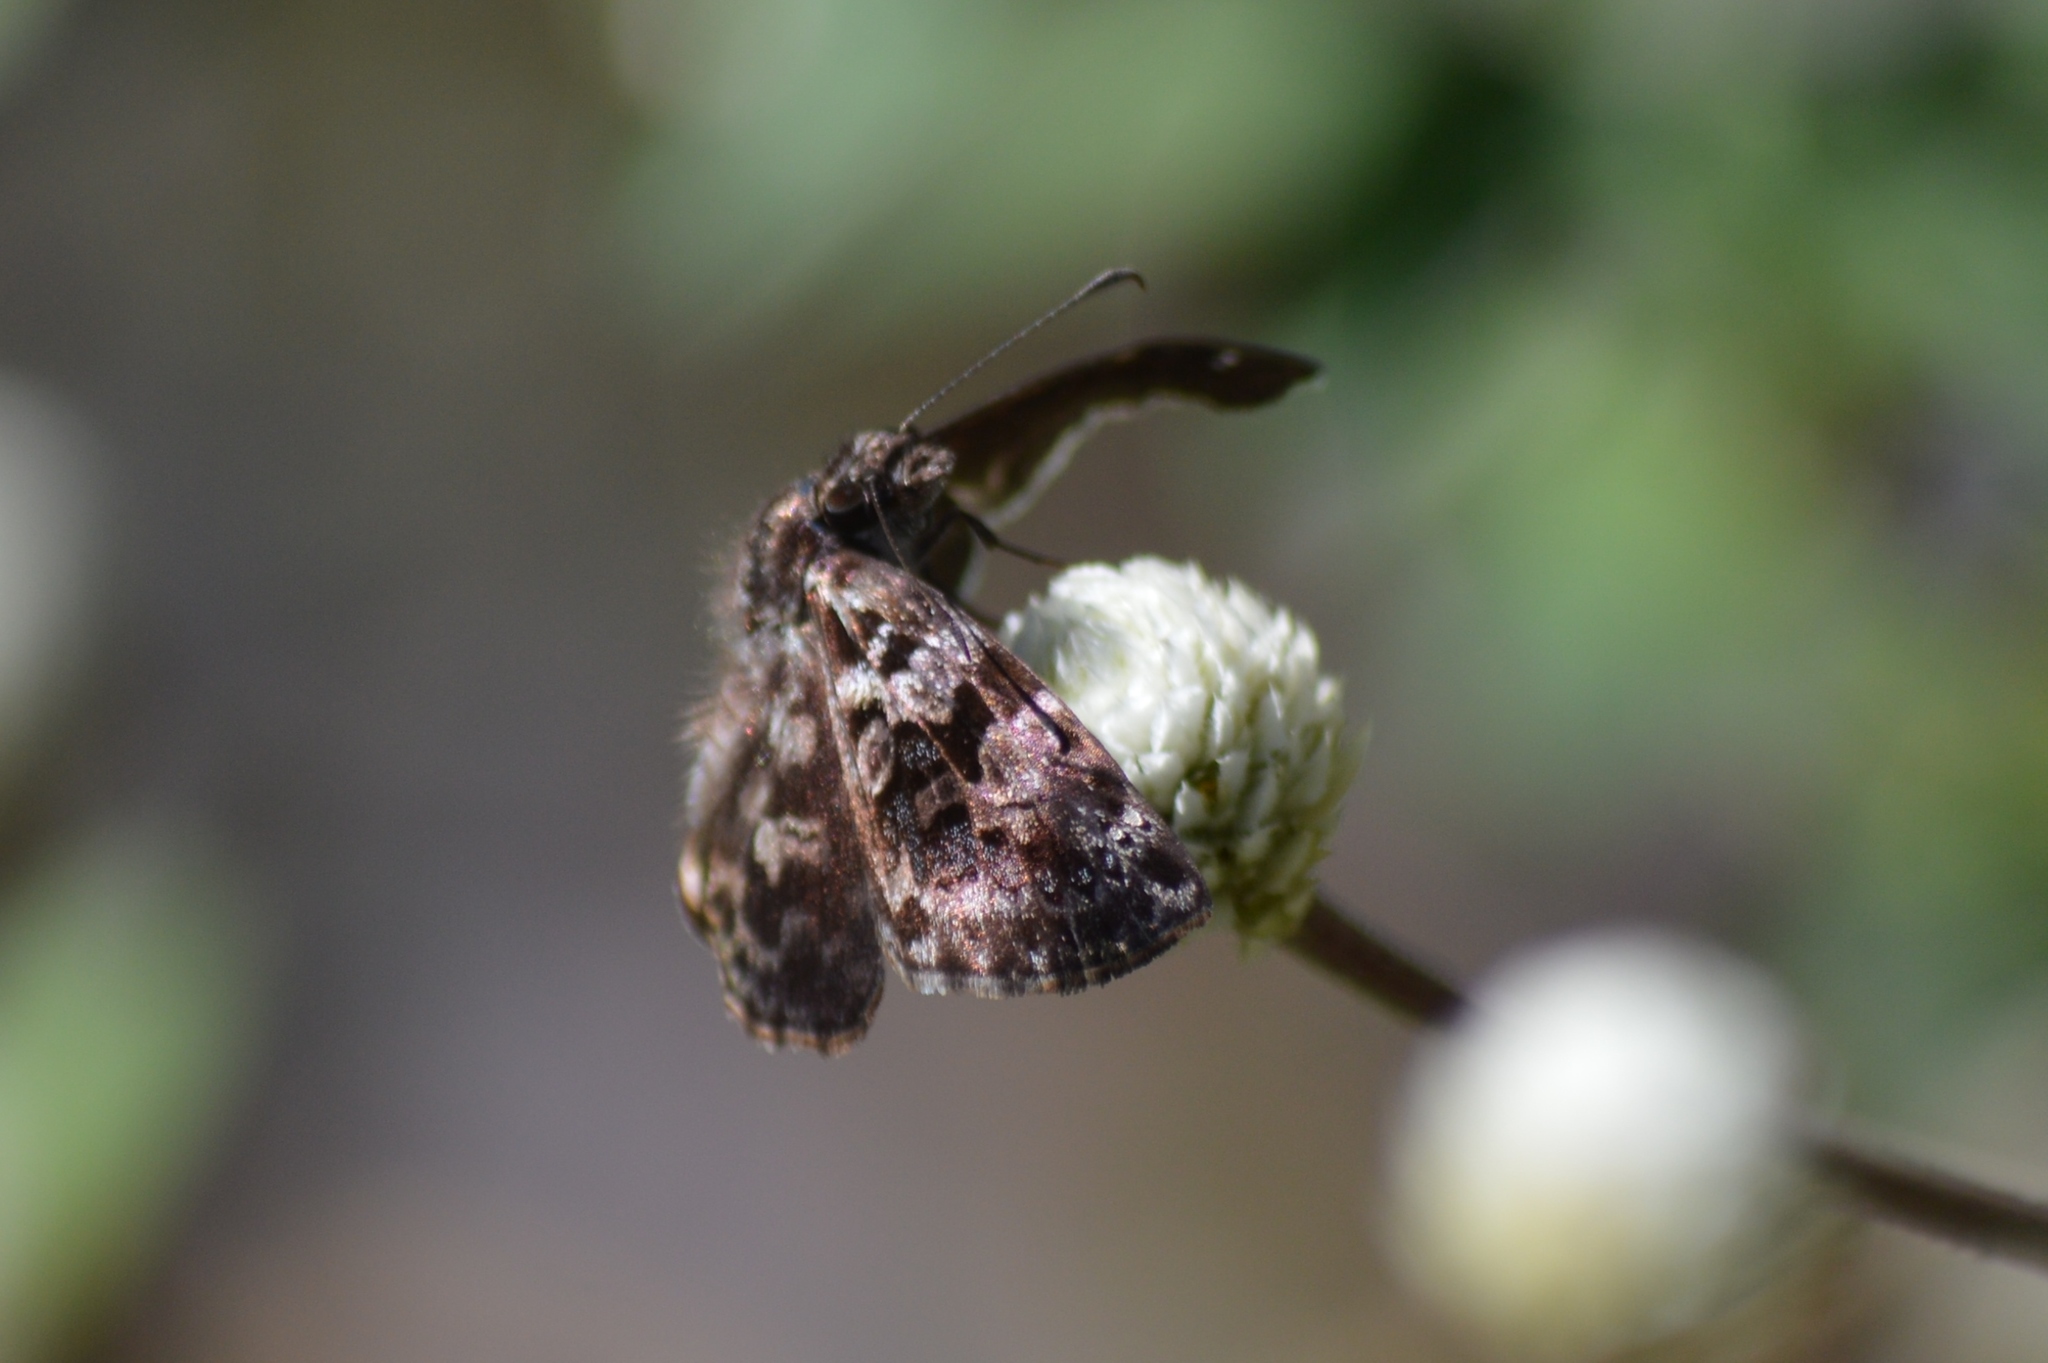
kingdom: Animalia
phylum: Arthropoda
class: Insecta
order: Lepidoptera
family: Hesperiidae
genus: Gorgythion
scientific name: Gorgythion begga
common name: Variegated skipper
